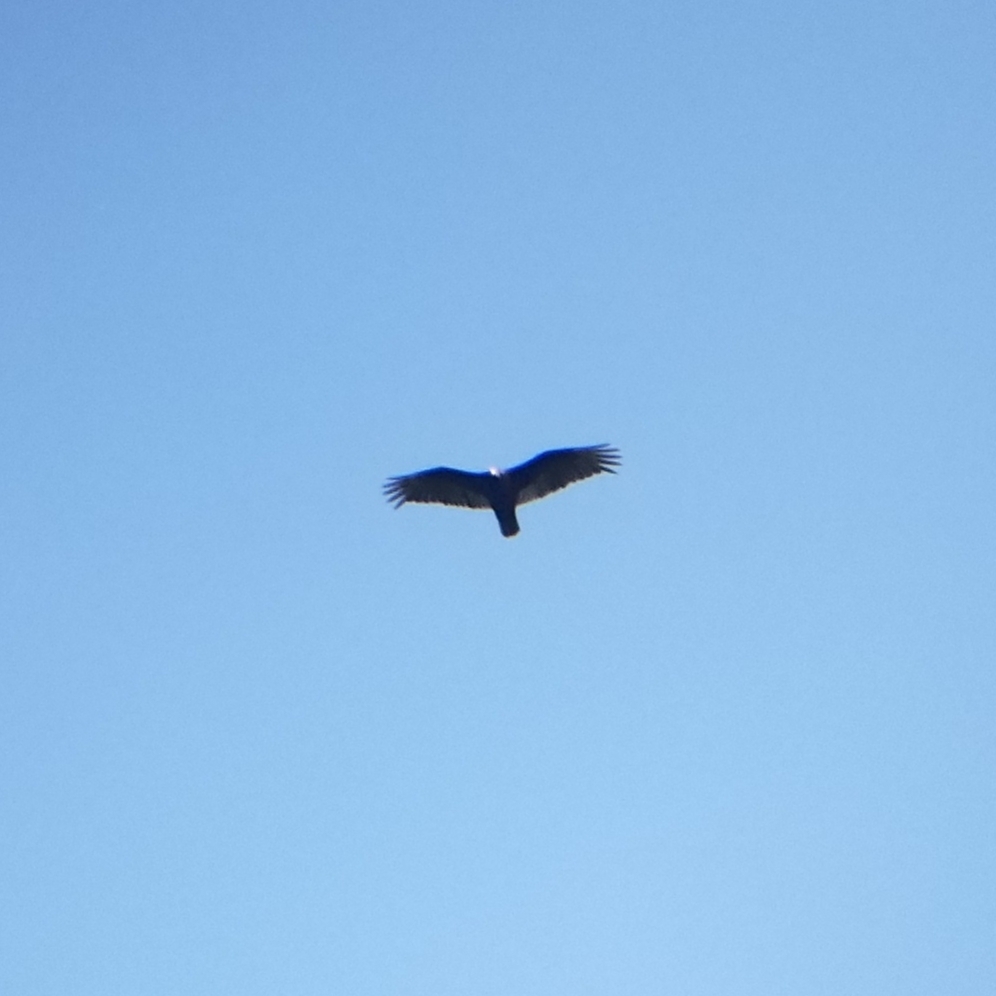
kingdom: Animalia
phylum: Chordata
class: Aves
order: Accipitriformes
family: Cathartidae
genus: Cathartes
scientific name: Cathartes aura
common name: Turkey vulture
